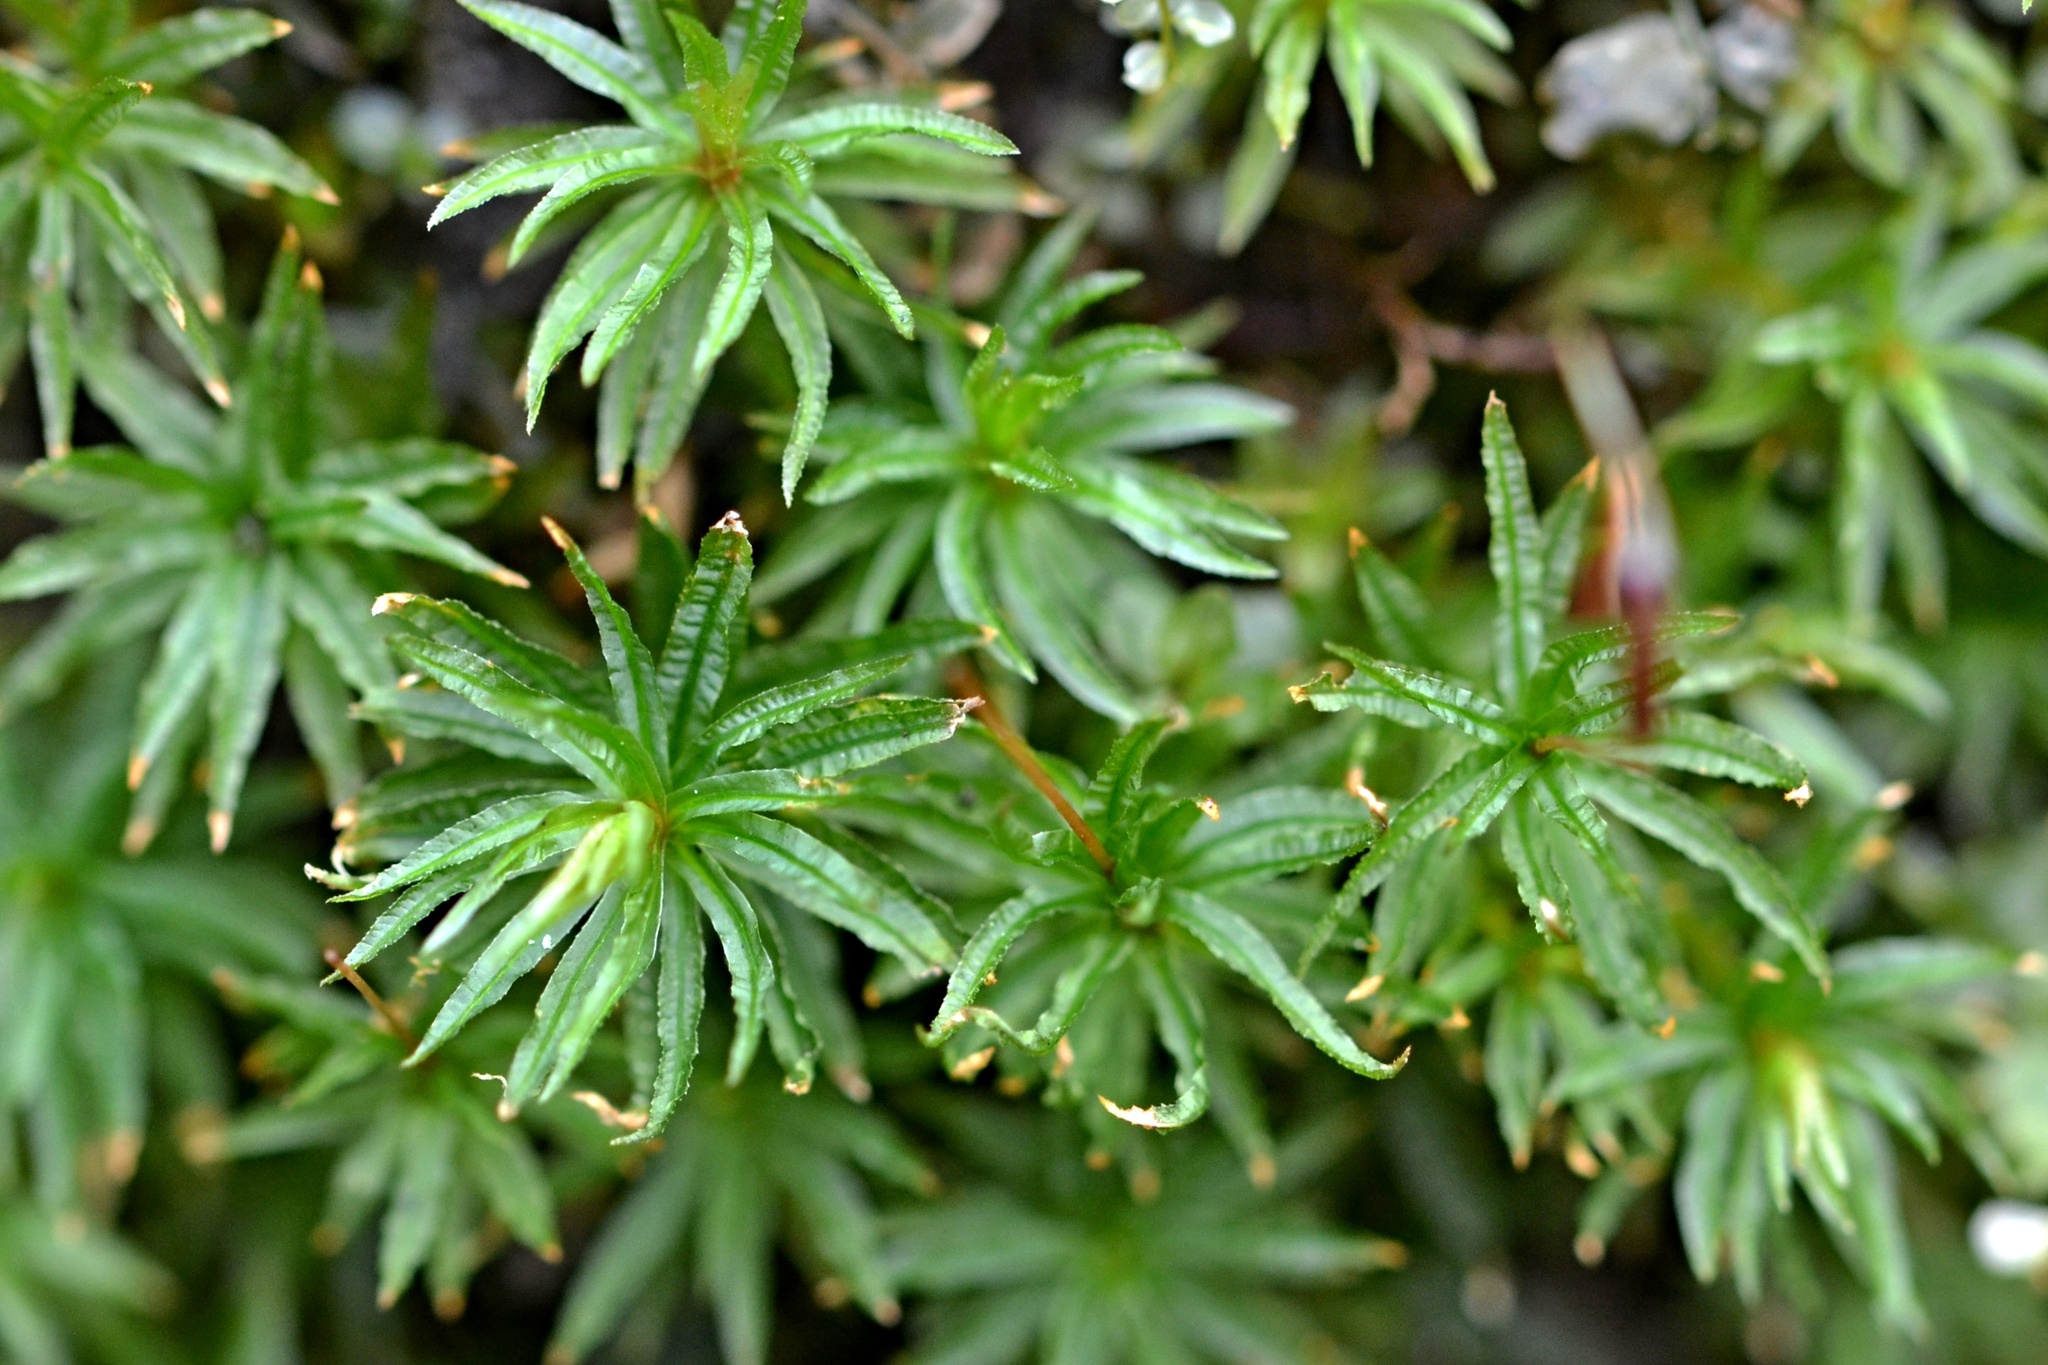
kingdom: Plantae
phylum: Bryophyta
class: Polytrichopsida
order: Polytrichales
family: Polytrichaceae
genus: Atrichum
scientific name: Atrichum undulatum
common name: Common smoothcap
